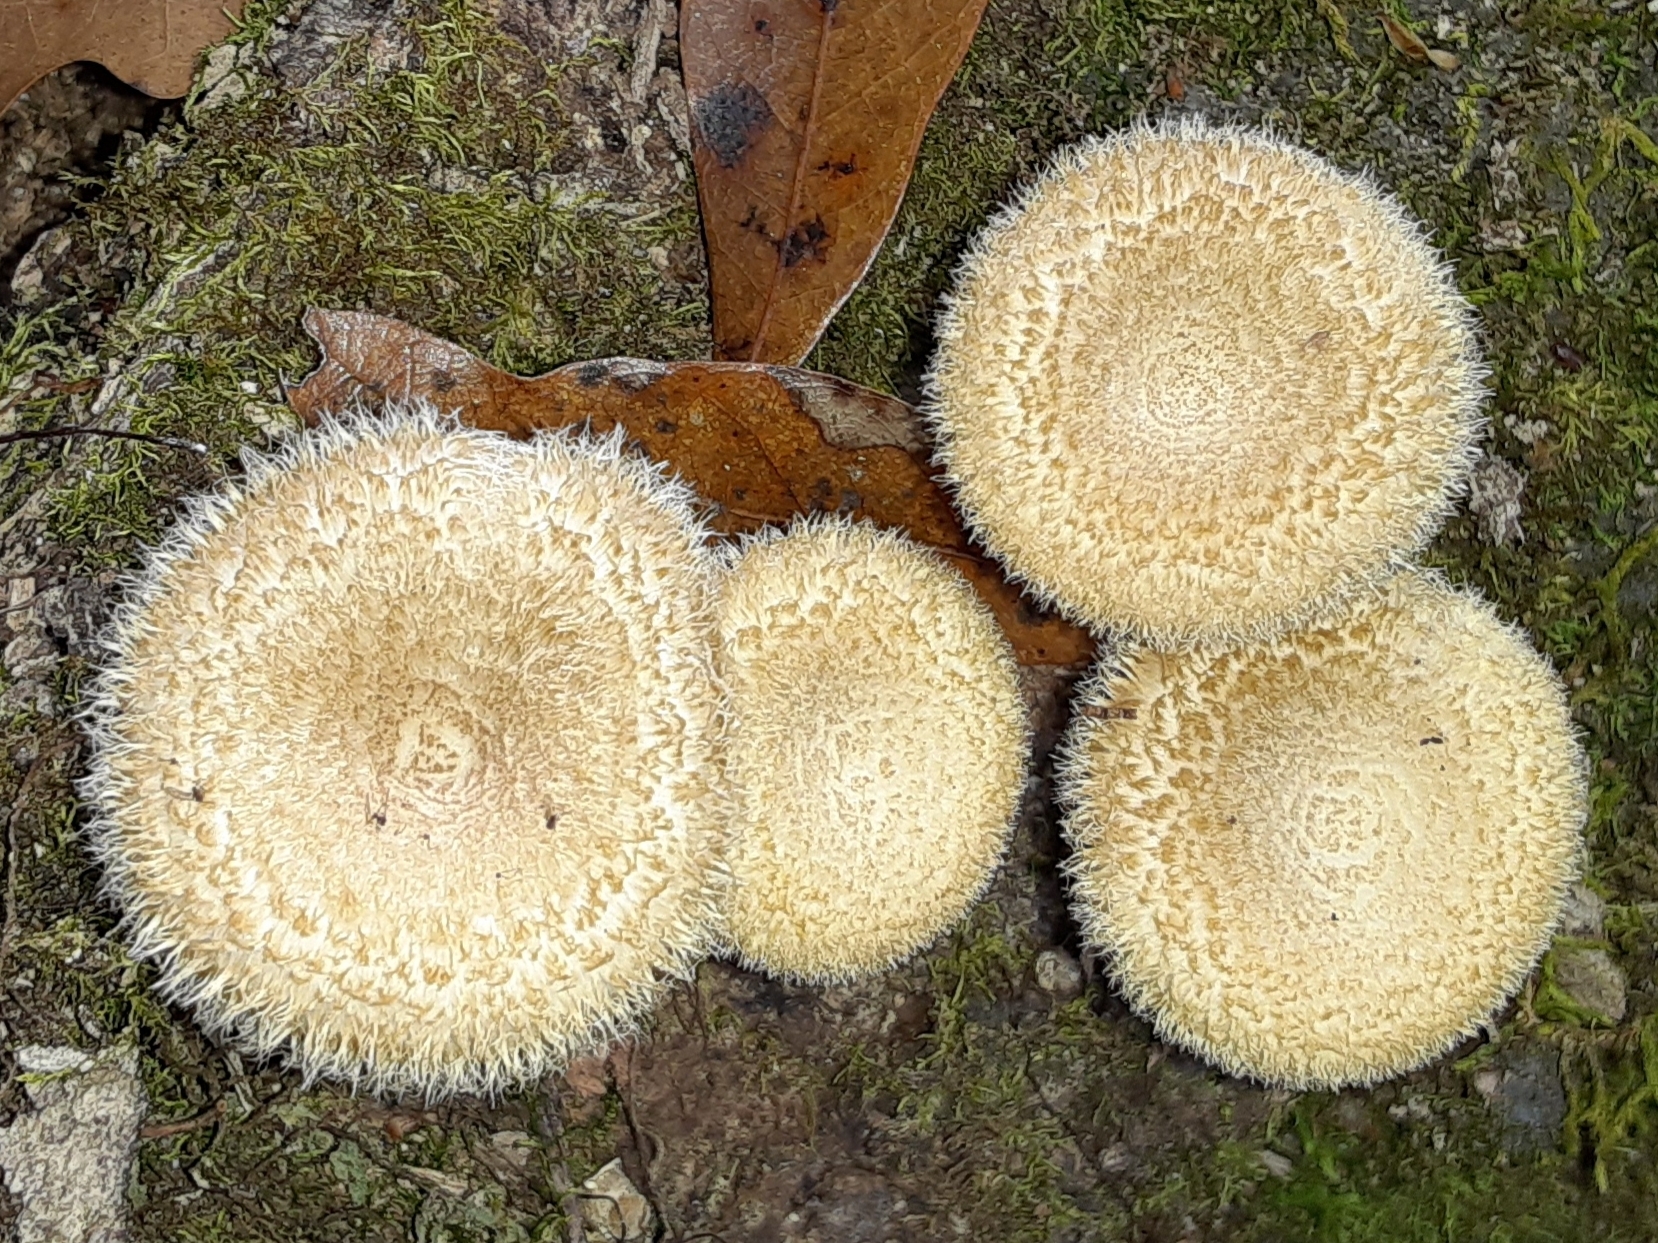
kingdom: Fungi
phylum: Basidiomycota
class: Agaricomycetes
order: Polyporales
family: Polyporaceae
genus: Lentinus
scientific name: Lentinus crinitus
